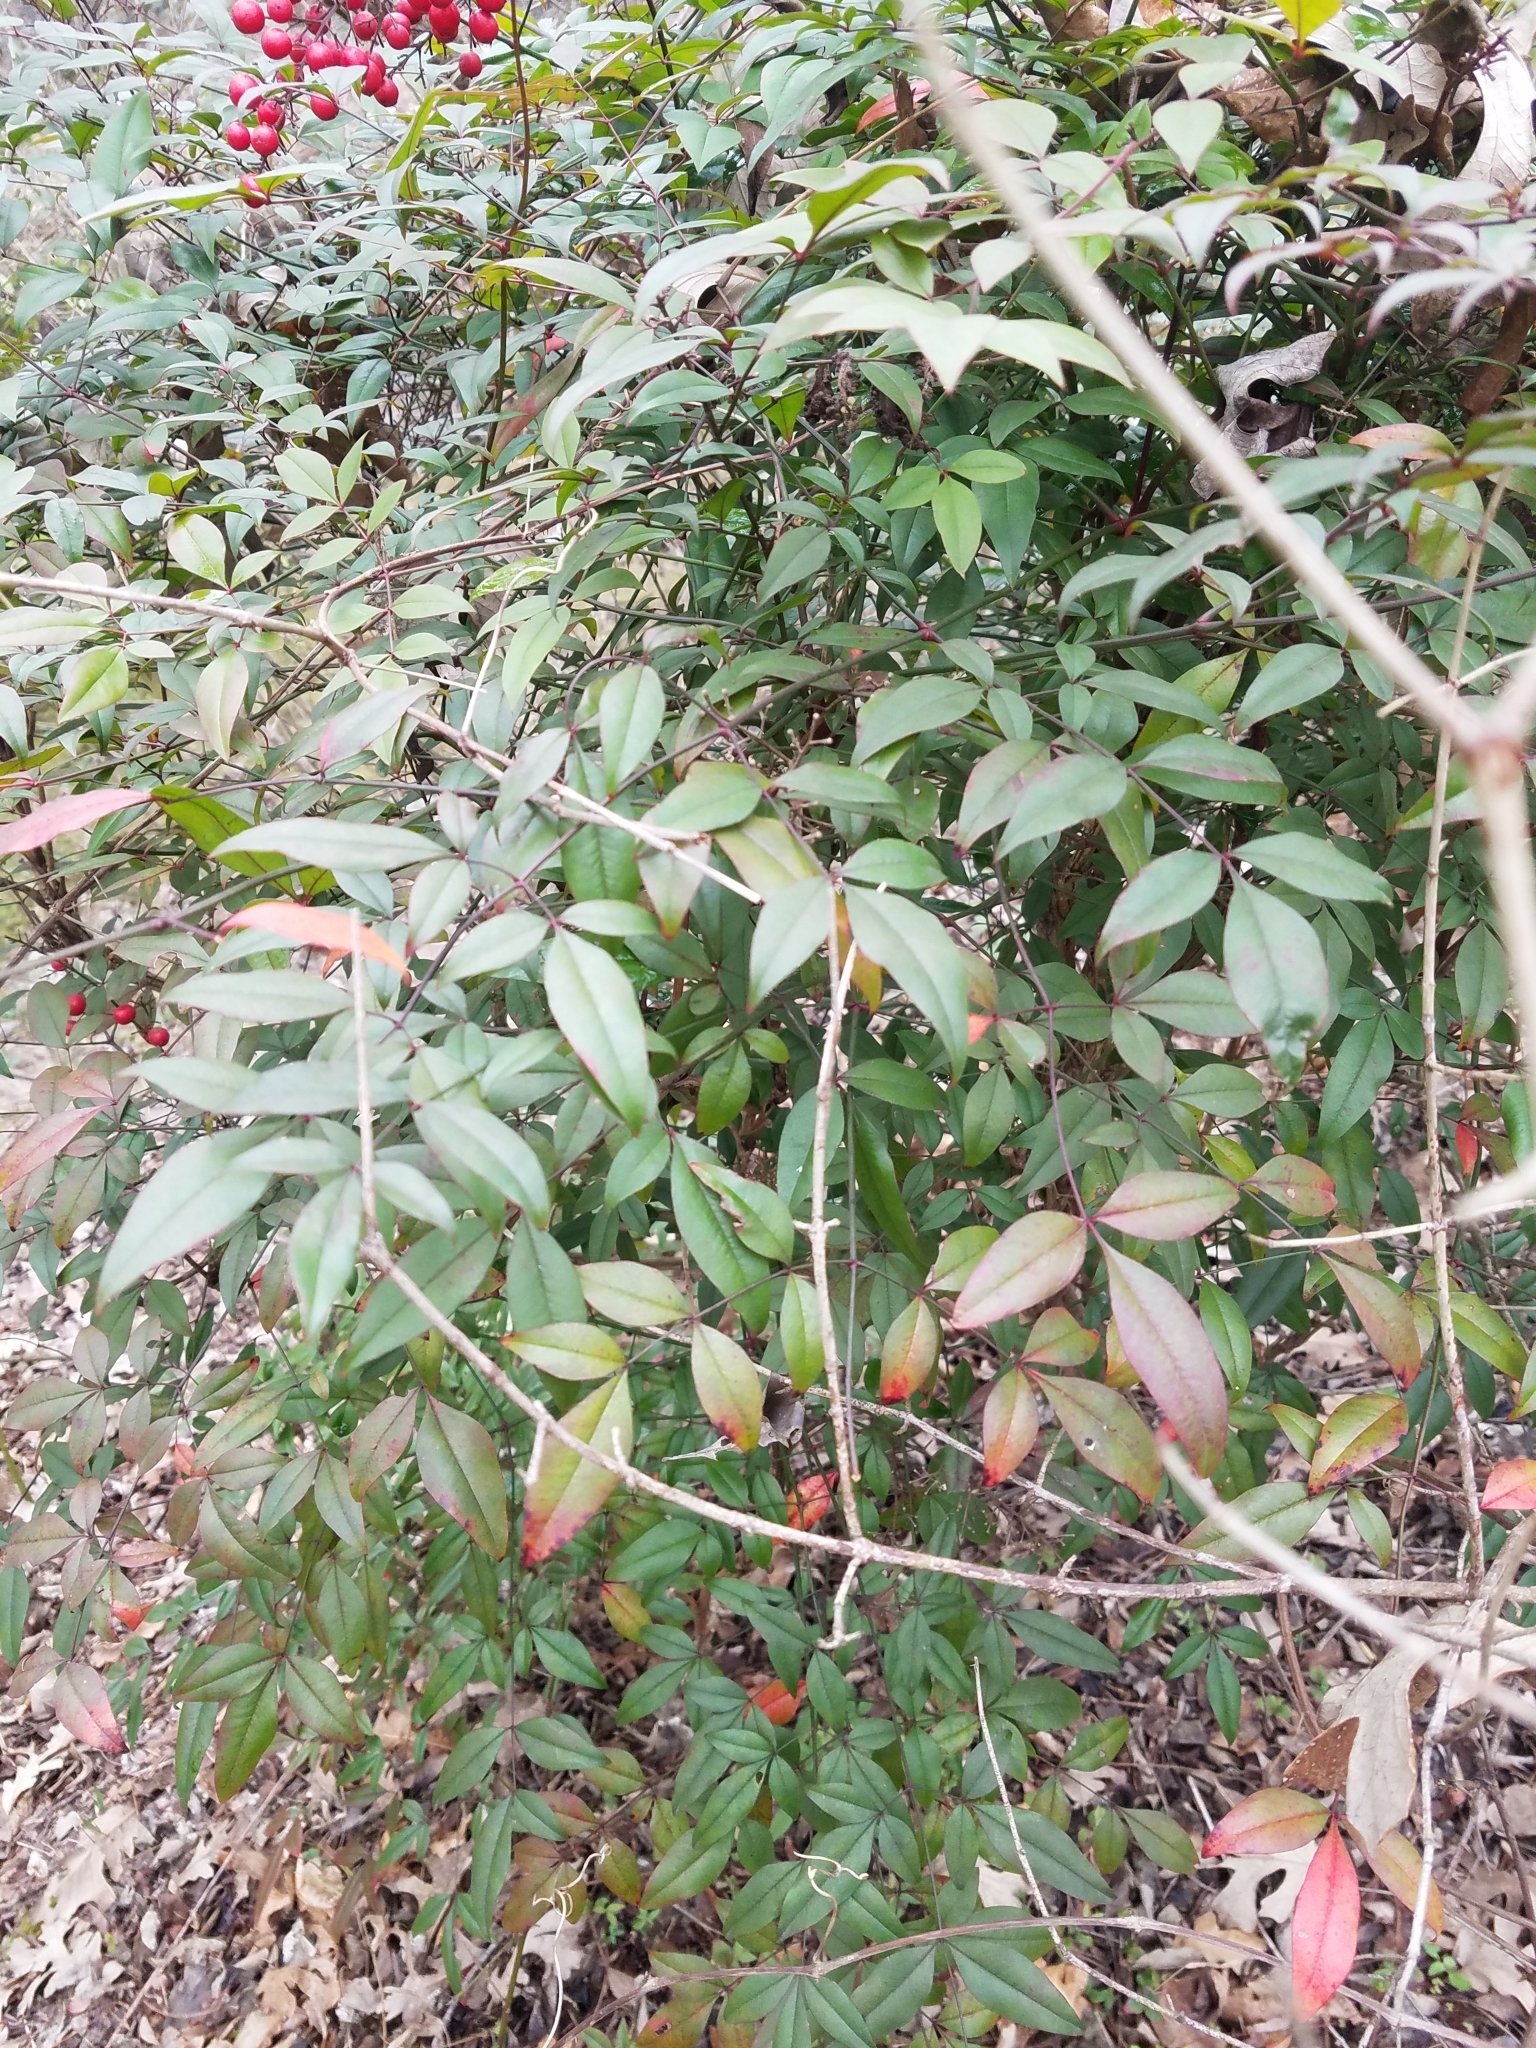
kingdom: Plantae
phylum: Tracheophyta
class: Magnoliopsida
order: Ranunculales
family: Berberidaceae
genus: Nandina
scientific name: Nandina domestica
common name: Sacred bamboo
